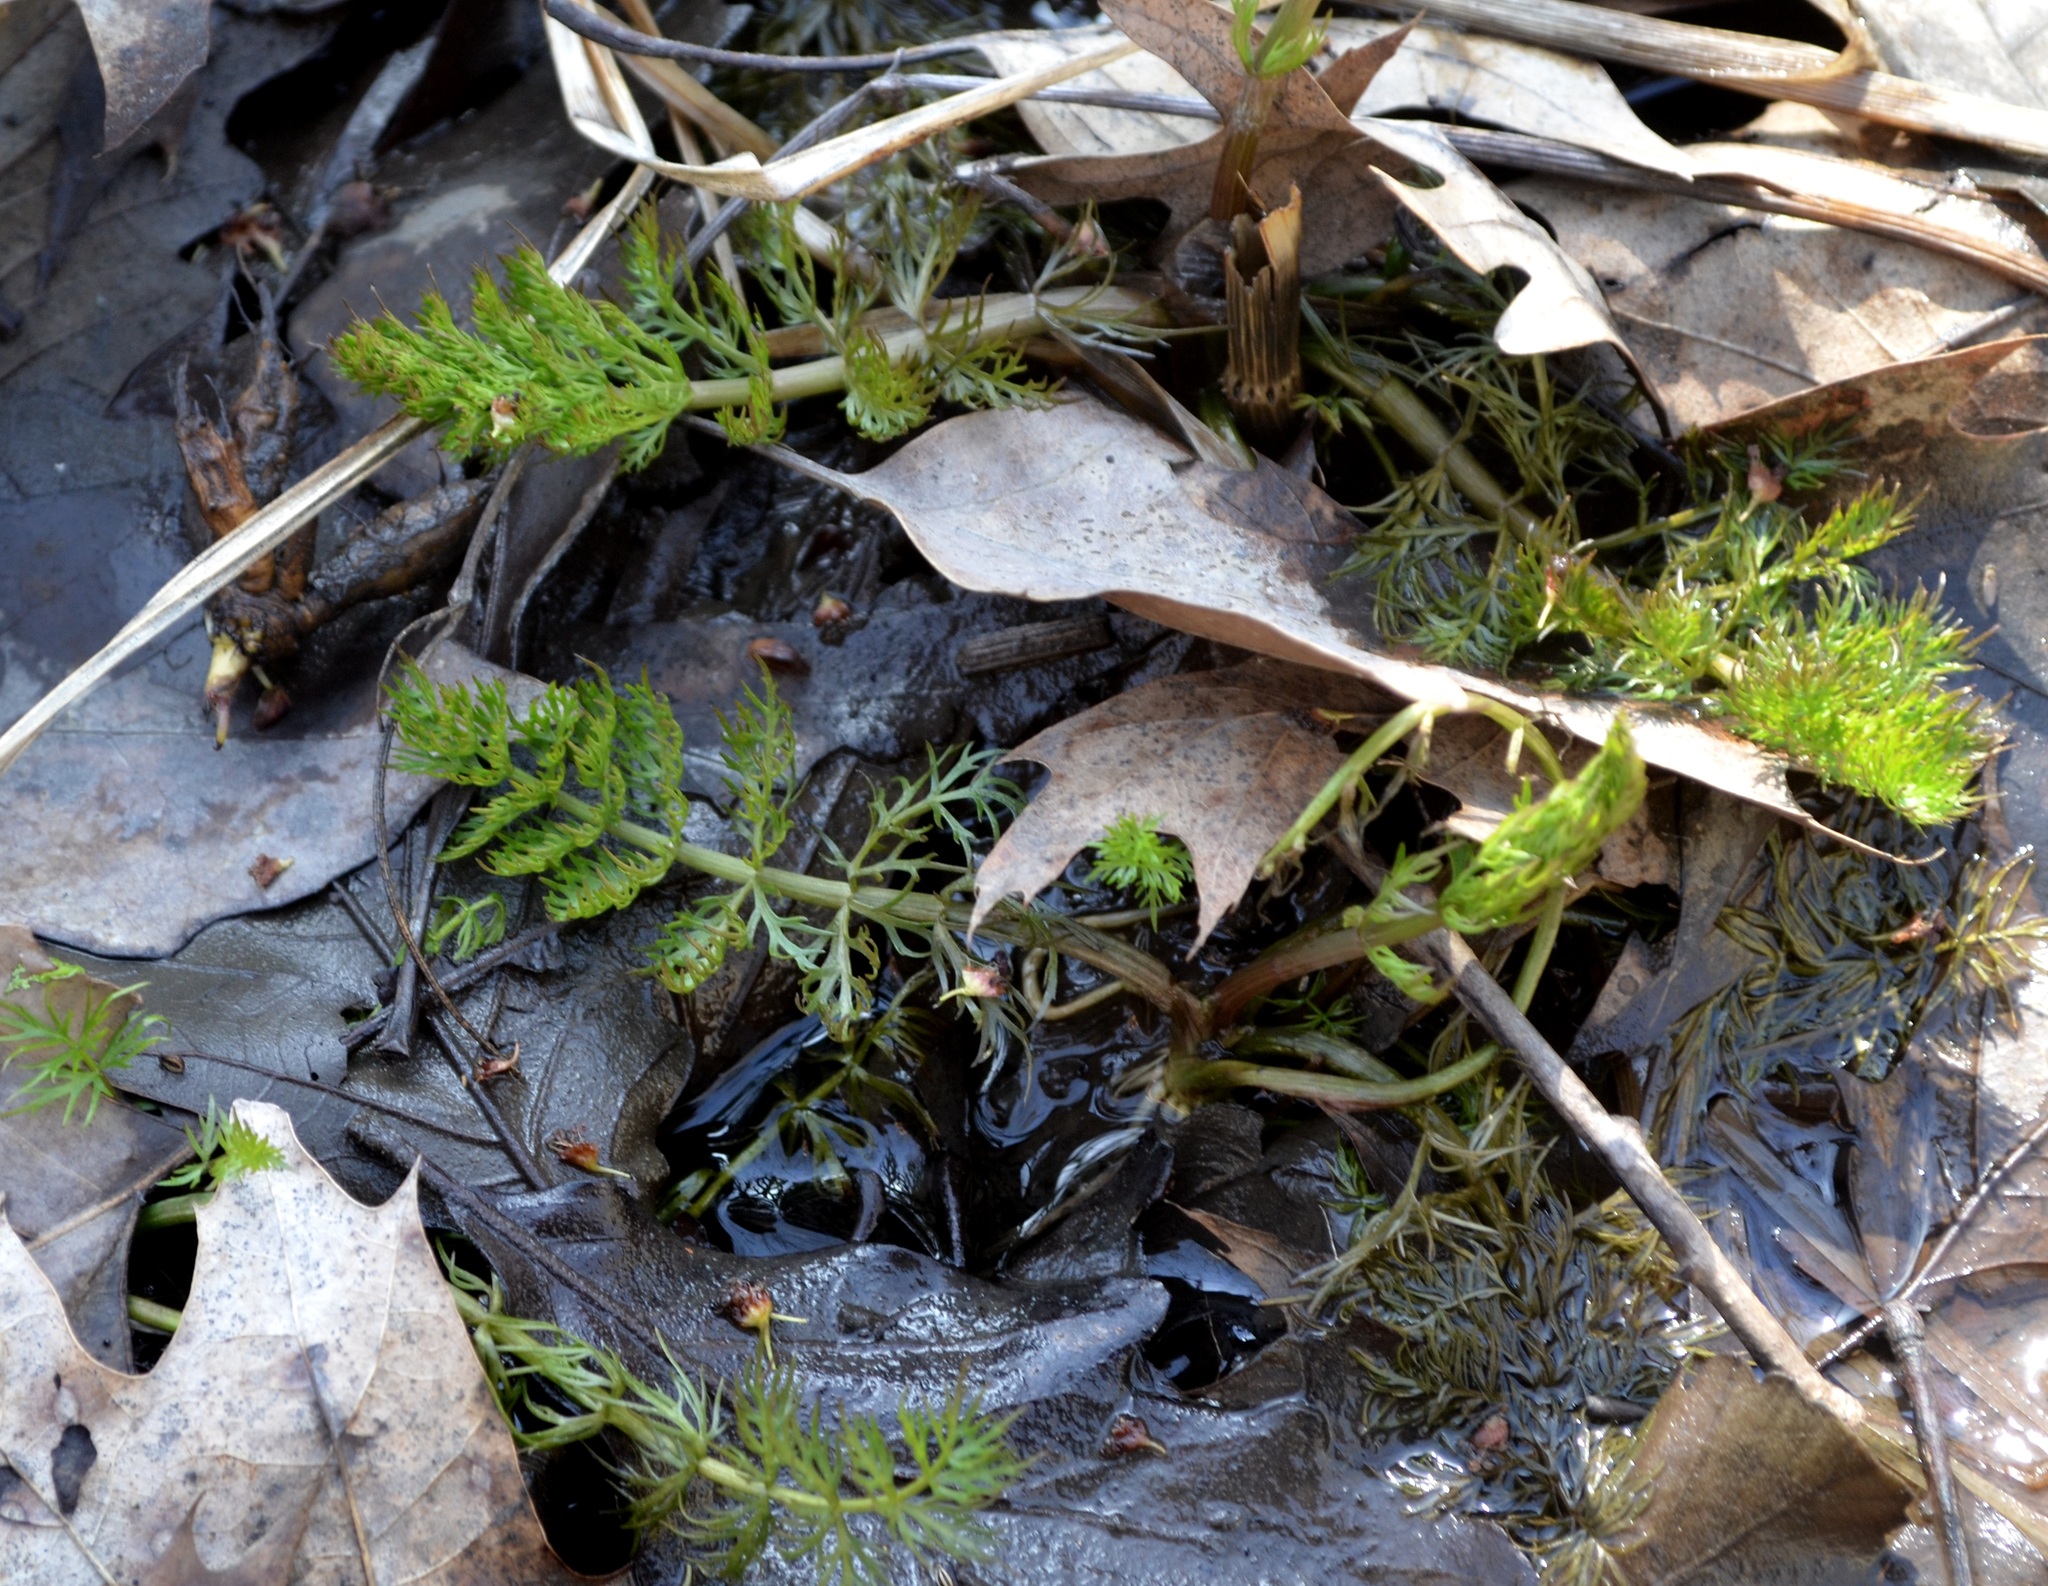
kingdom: Plantae
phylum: Tracheophyta
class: Magnoliopsida
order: Apiales
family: Apiaceae
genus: Sium
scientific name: Sium suave
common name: Hemlock water-parsnip
